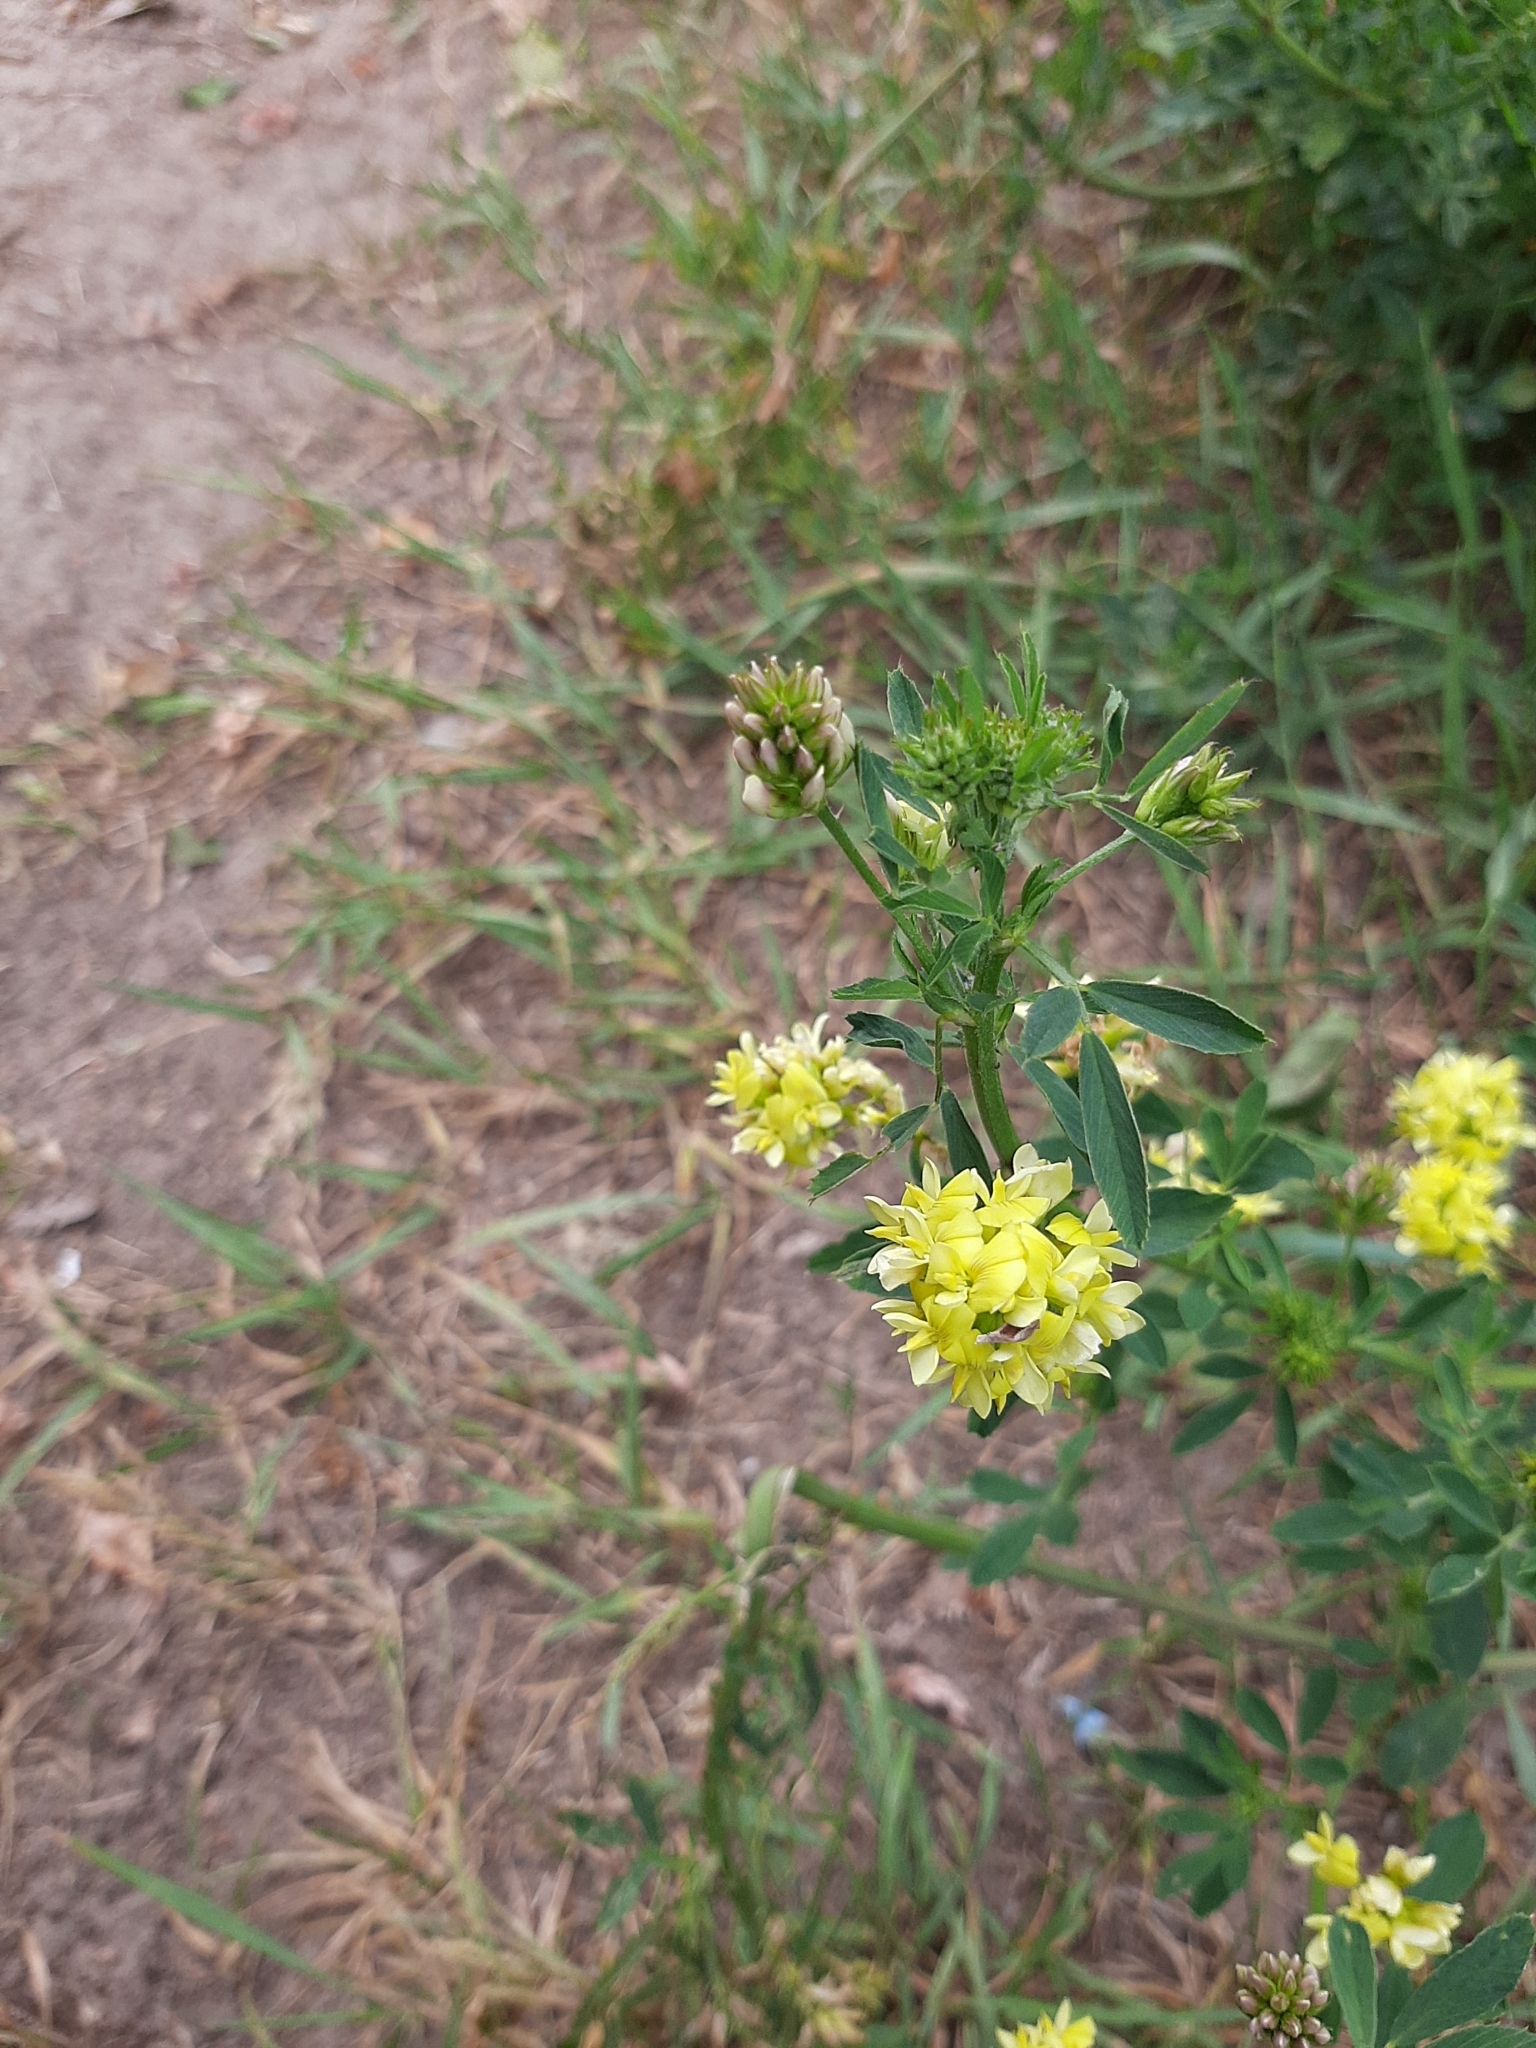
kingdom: Plantae
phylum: Tracheophyta
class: Magnoliopsida
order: Fabales
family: Fabaceae
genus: Medicago
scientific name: Medicago varia
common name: Sand lucerne
